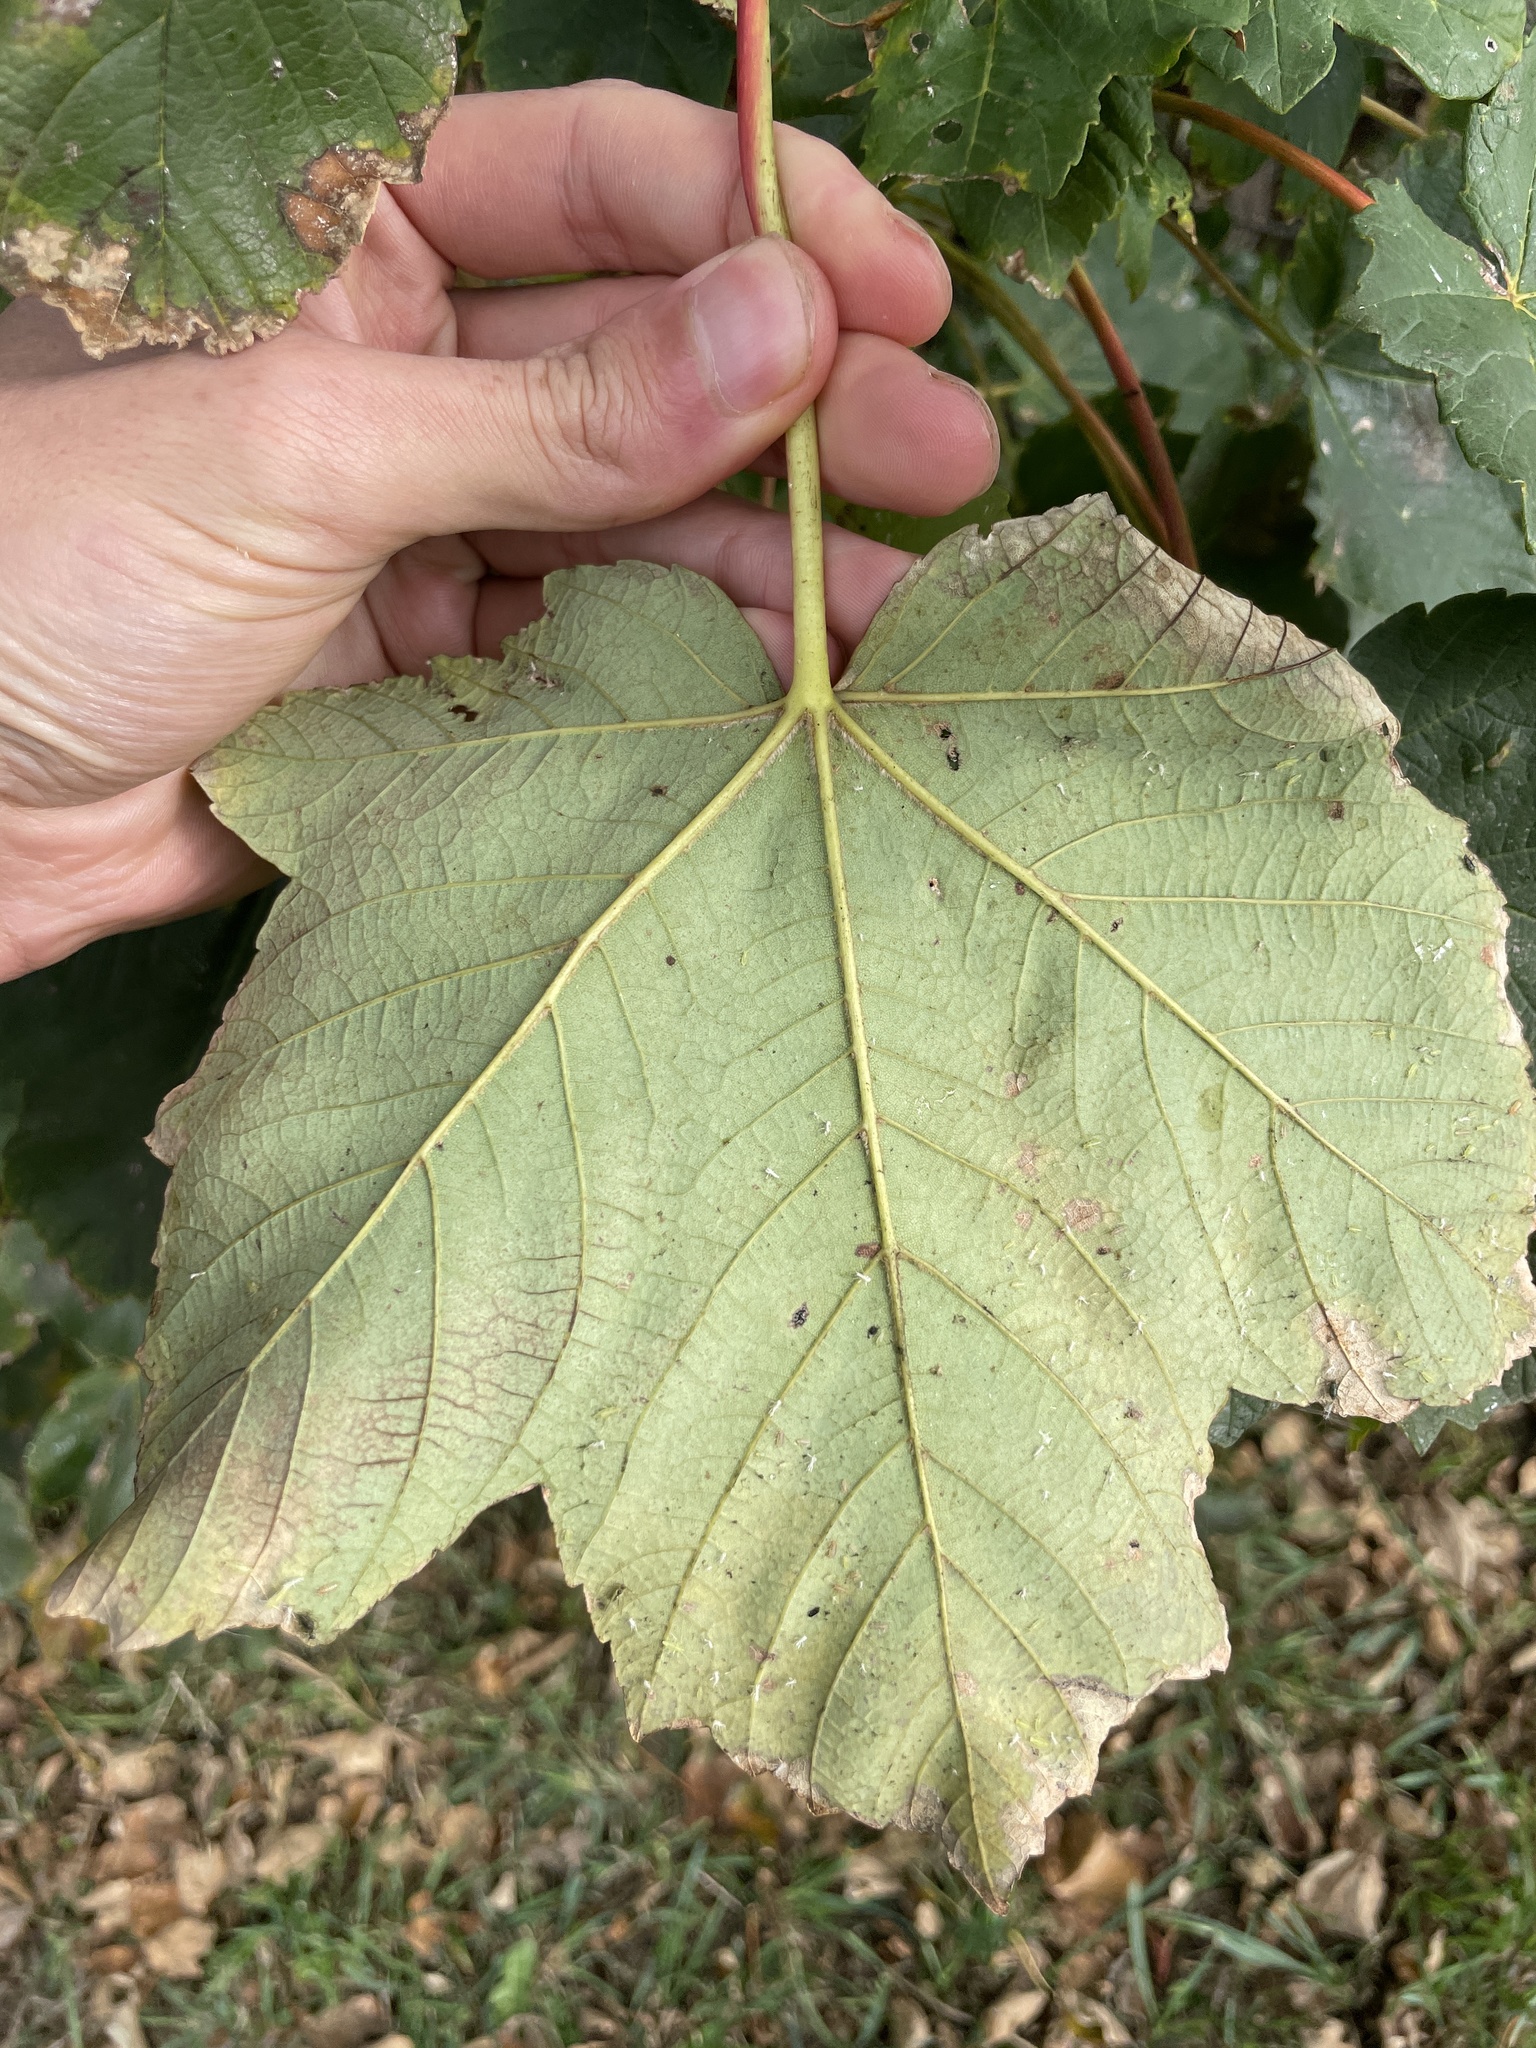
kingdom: Plantae
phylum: Tracheophyta
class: Magnoliopsida
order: Sapindales
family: Sapindaceae
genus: Acer
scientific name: Acer pseudoplatanus
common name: Sycamore
